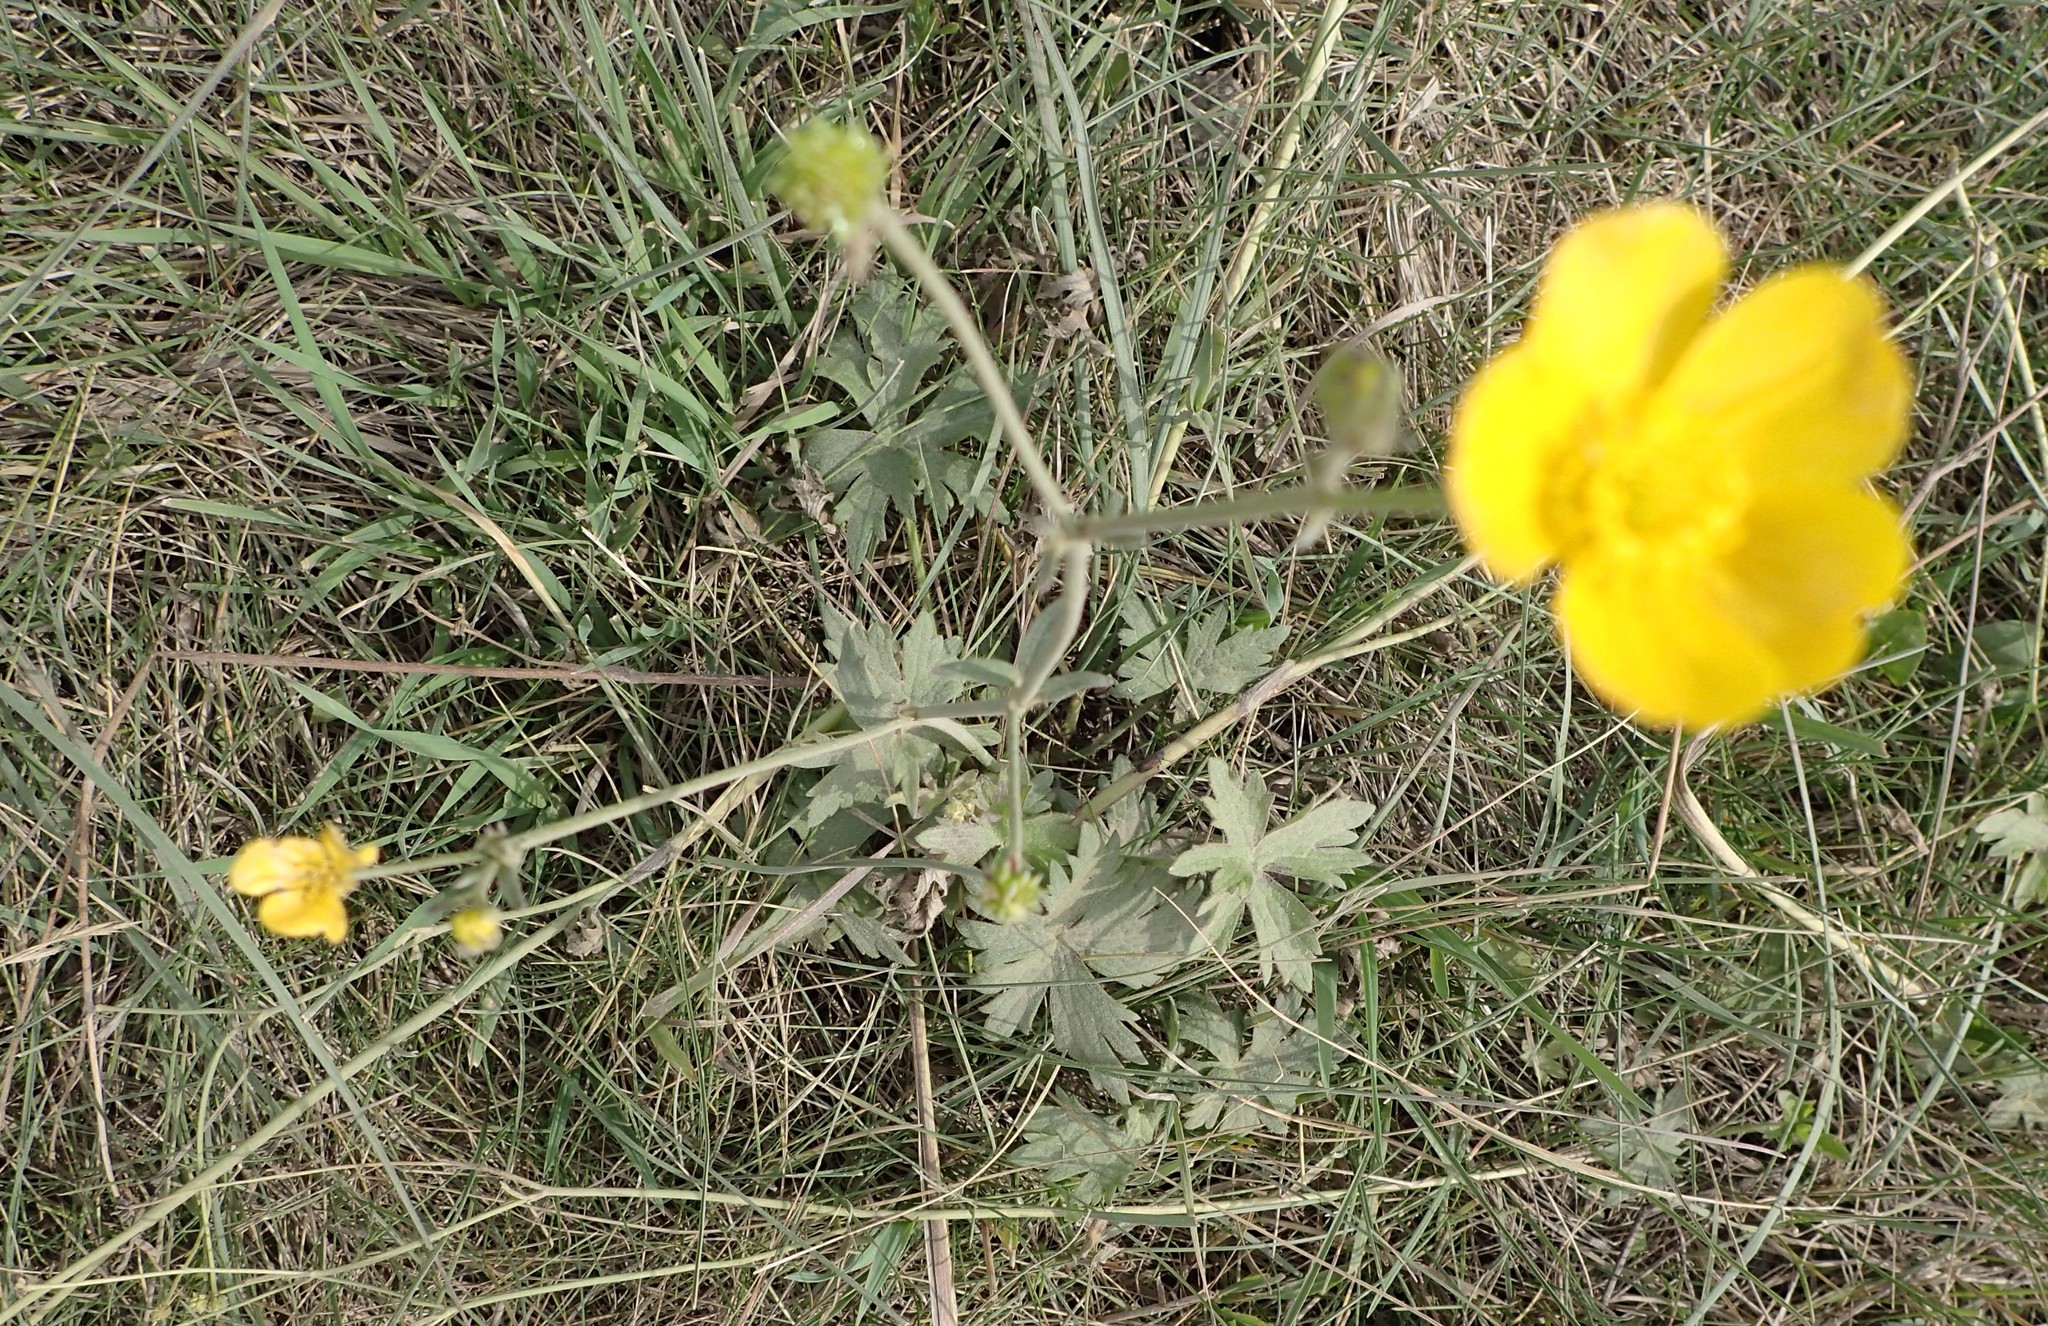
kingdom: Plantae
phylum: Tracheophyta
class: Magnoliopsida
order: Ranunculales
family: Ranunculaceae
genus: Ranunculus
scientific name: Ranunculus acris
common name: Meadow buttercup
